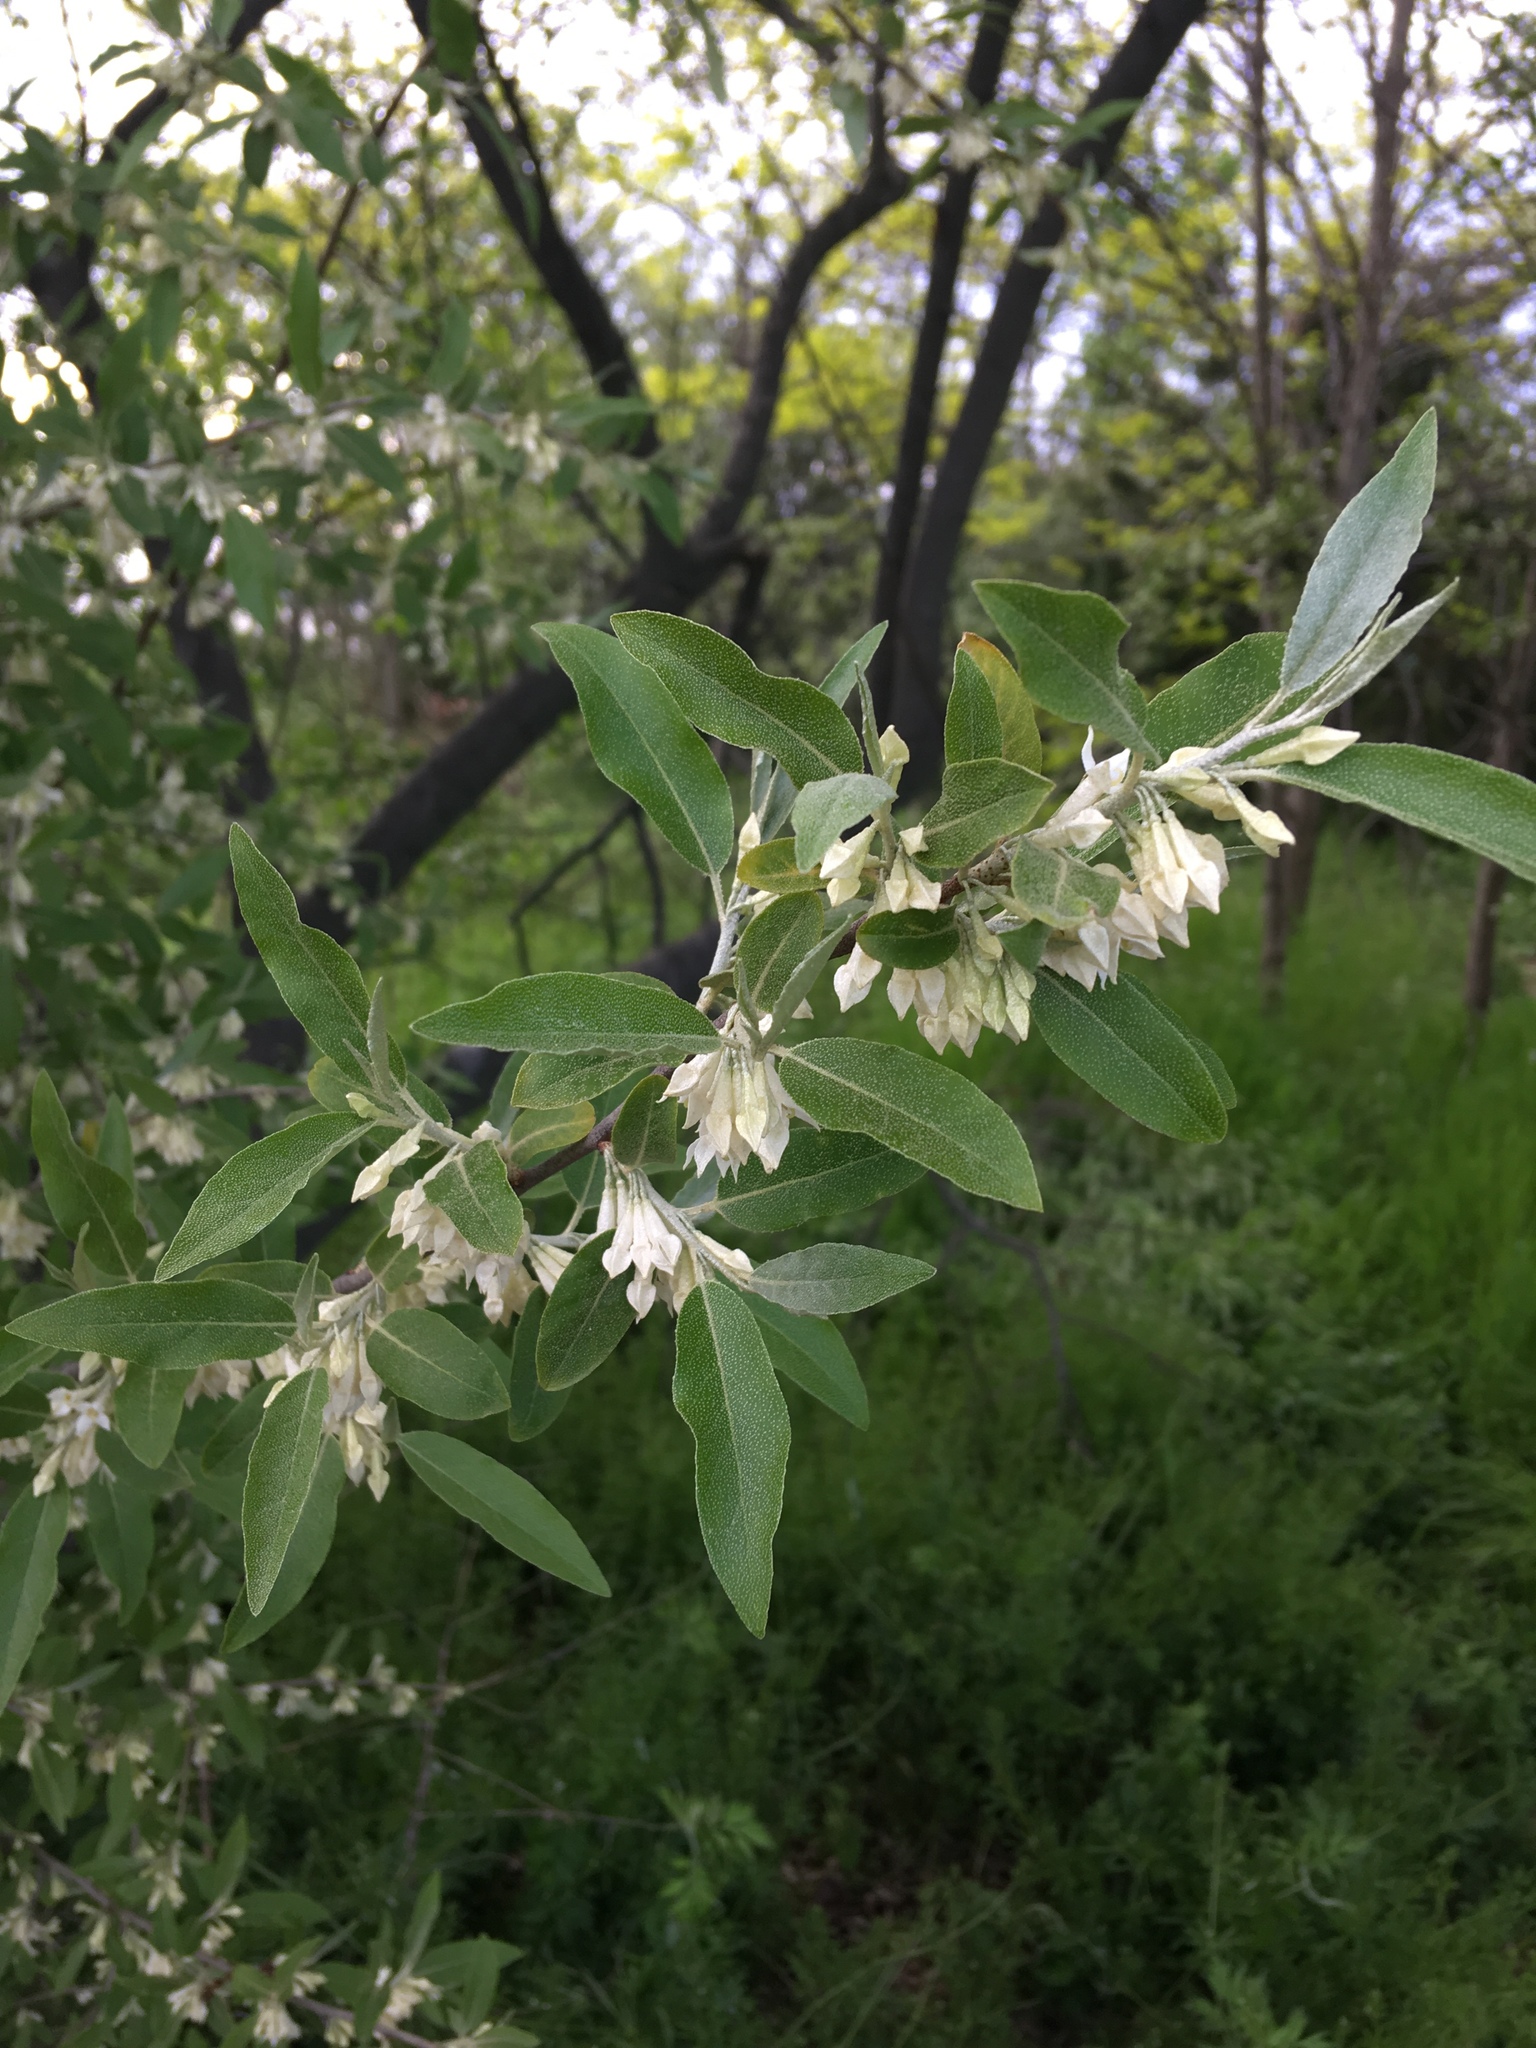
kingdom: Plantae
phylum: Tracheophyta
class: Magnoliopsida
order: Rosales
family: Elaeagnaceae
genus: Elaeagnus
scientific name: Elaeagnus umbellata
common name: Autumn olive
